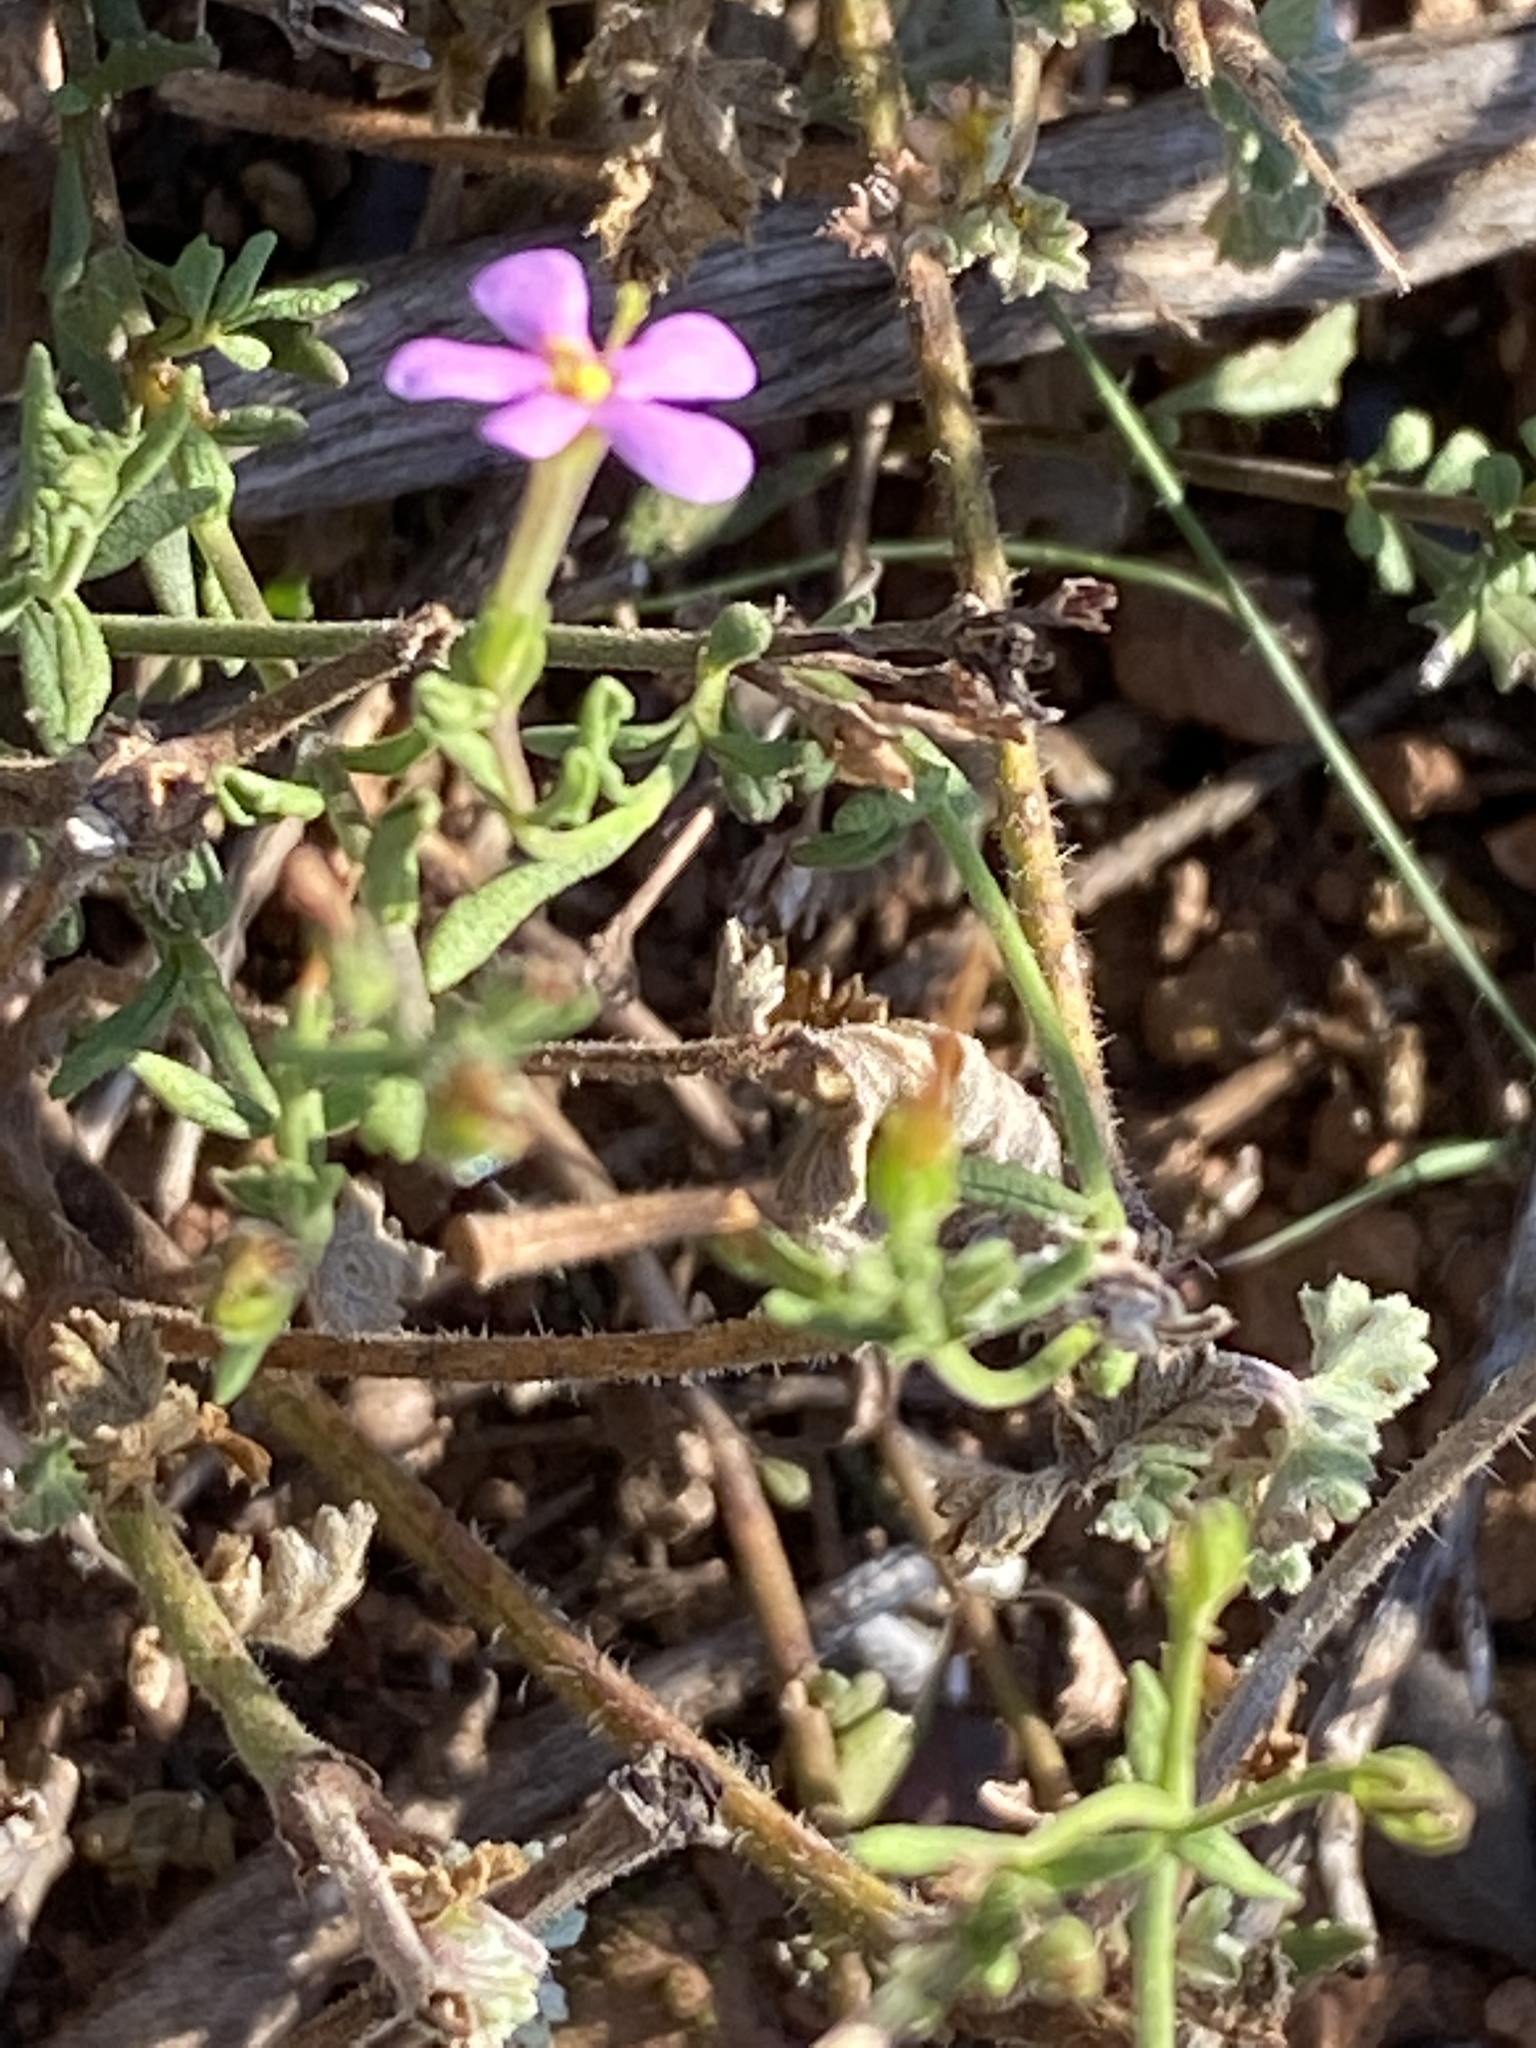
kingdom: Plantae
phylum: Tracheophyta
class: Magnoliopsida
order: Lamiales
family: Scrophulariaceae
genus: Chaenostoma
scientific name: Chaenostoma revolutum
